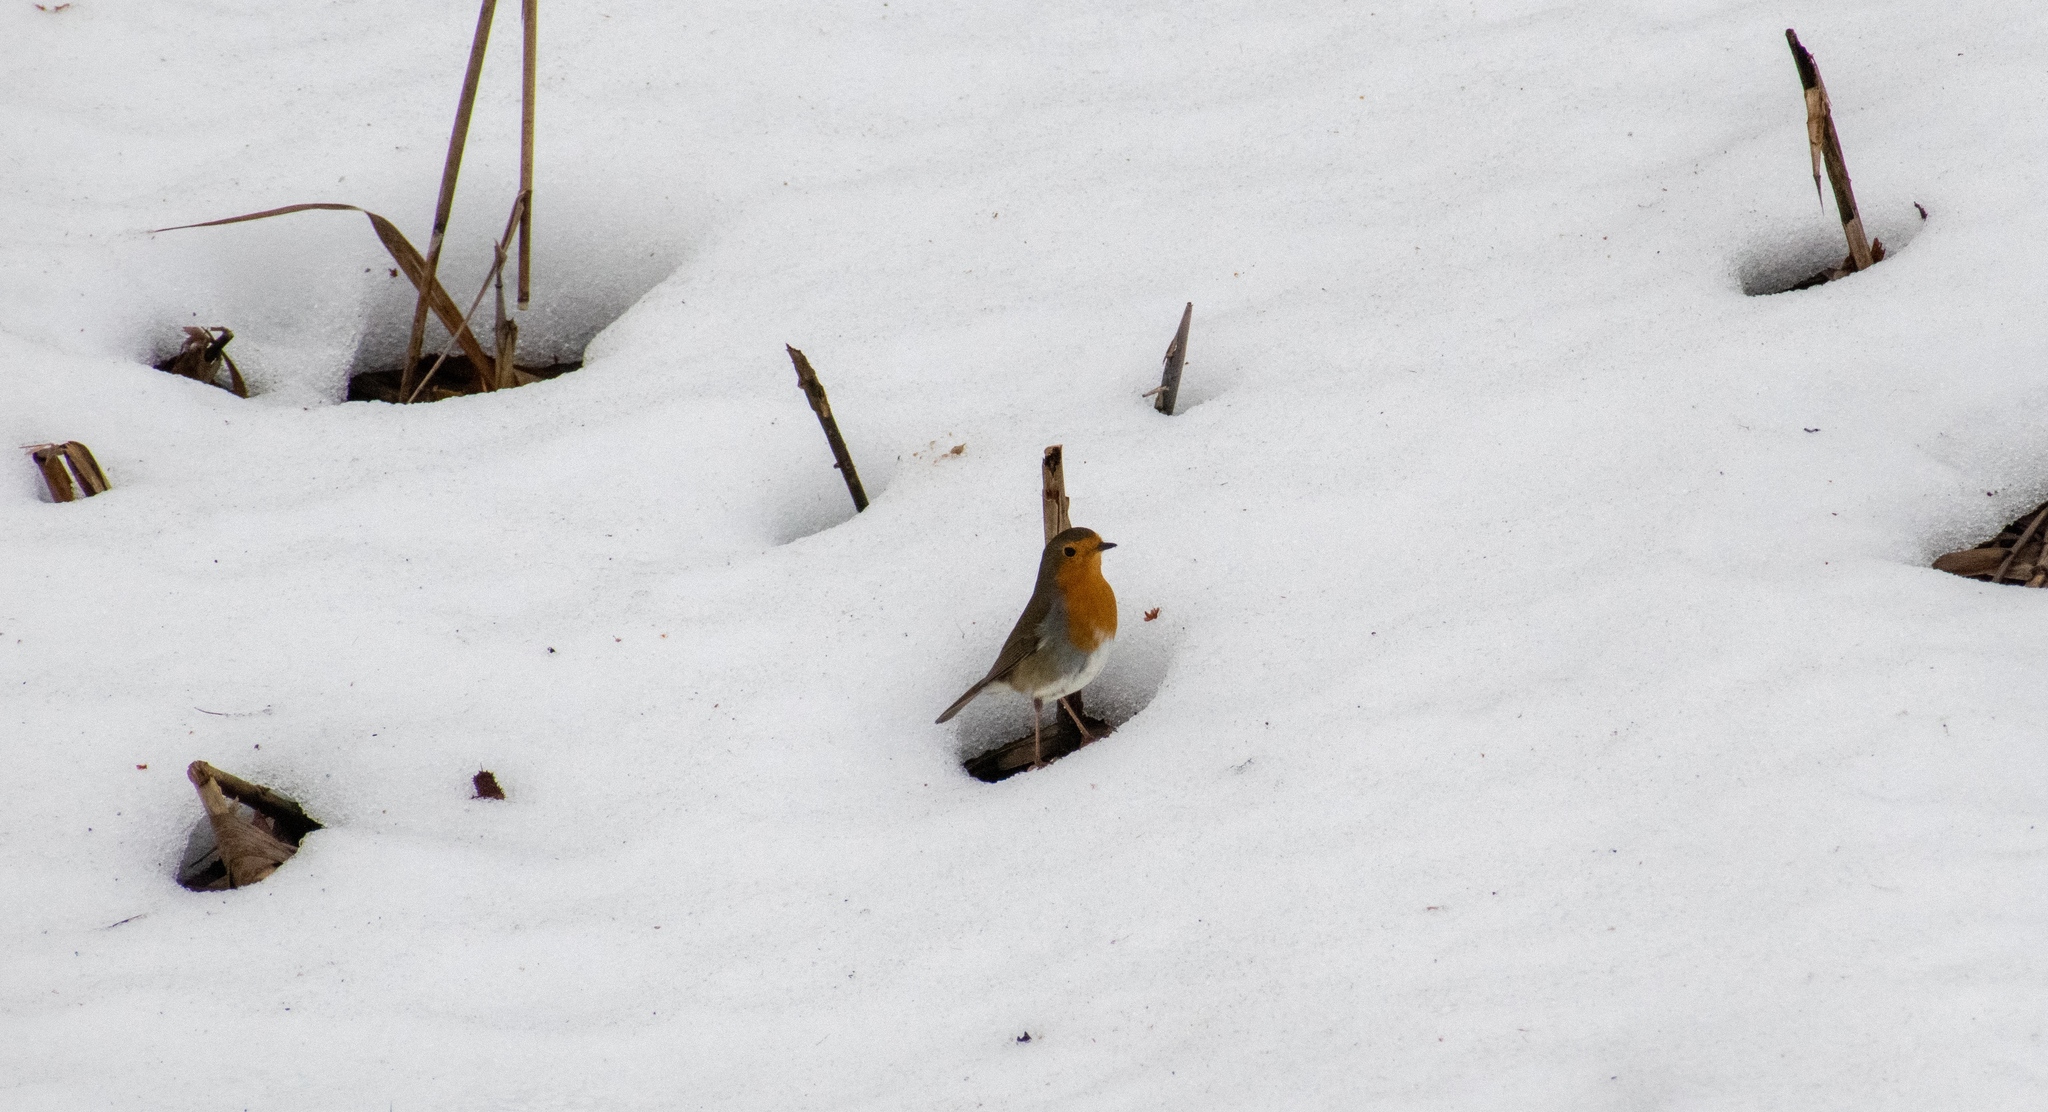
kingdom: Animalia
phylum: Chordata
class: Aves
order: Passeriformes
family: Muscicapidae
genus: Erithacus
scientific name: Erithacus rubecula
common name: European robin
